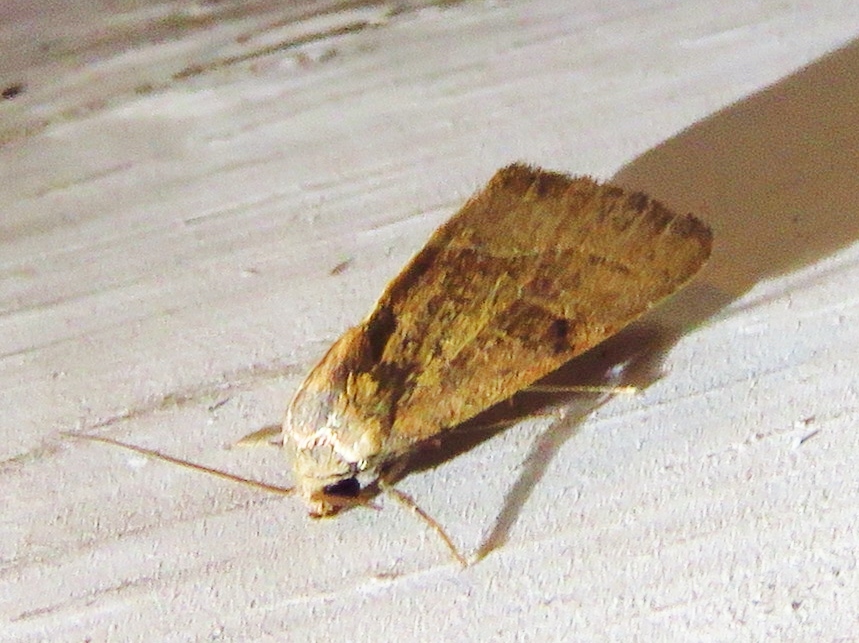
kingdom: Animalia
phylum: Arthropoda
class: Insecta
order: Lepidoptera
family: Noctuidae
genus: Galgula
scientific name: Galgula partita
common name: Wedgeling
